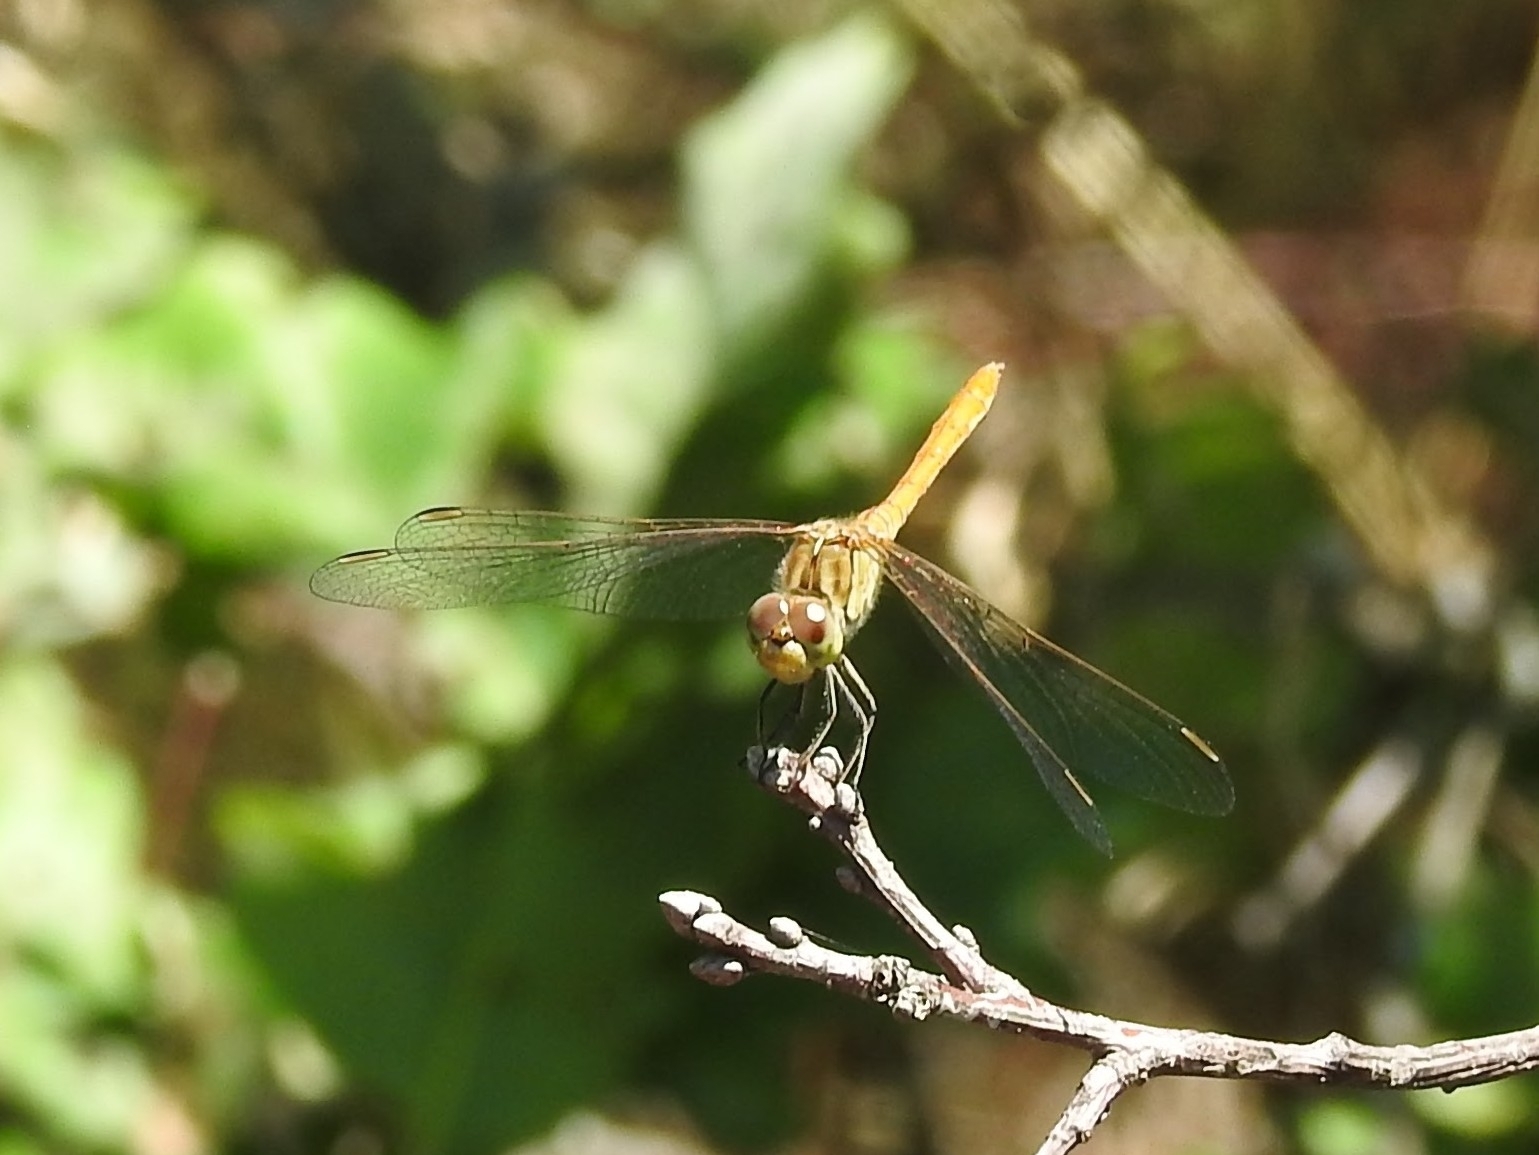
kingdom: Animalia
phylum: Arthropoda
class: Insecta
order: Odonata
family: Libellulidae
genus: Sympetrum
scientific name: Sympetrum meridionale
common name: Southern darter
